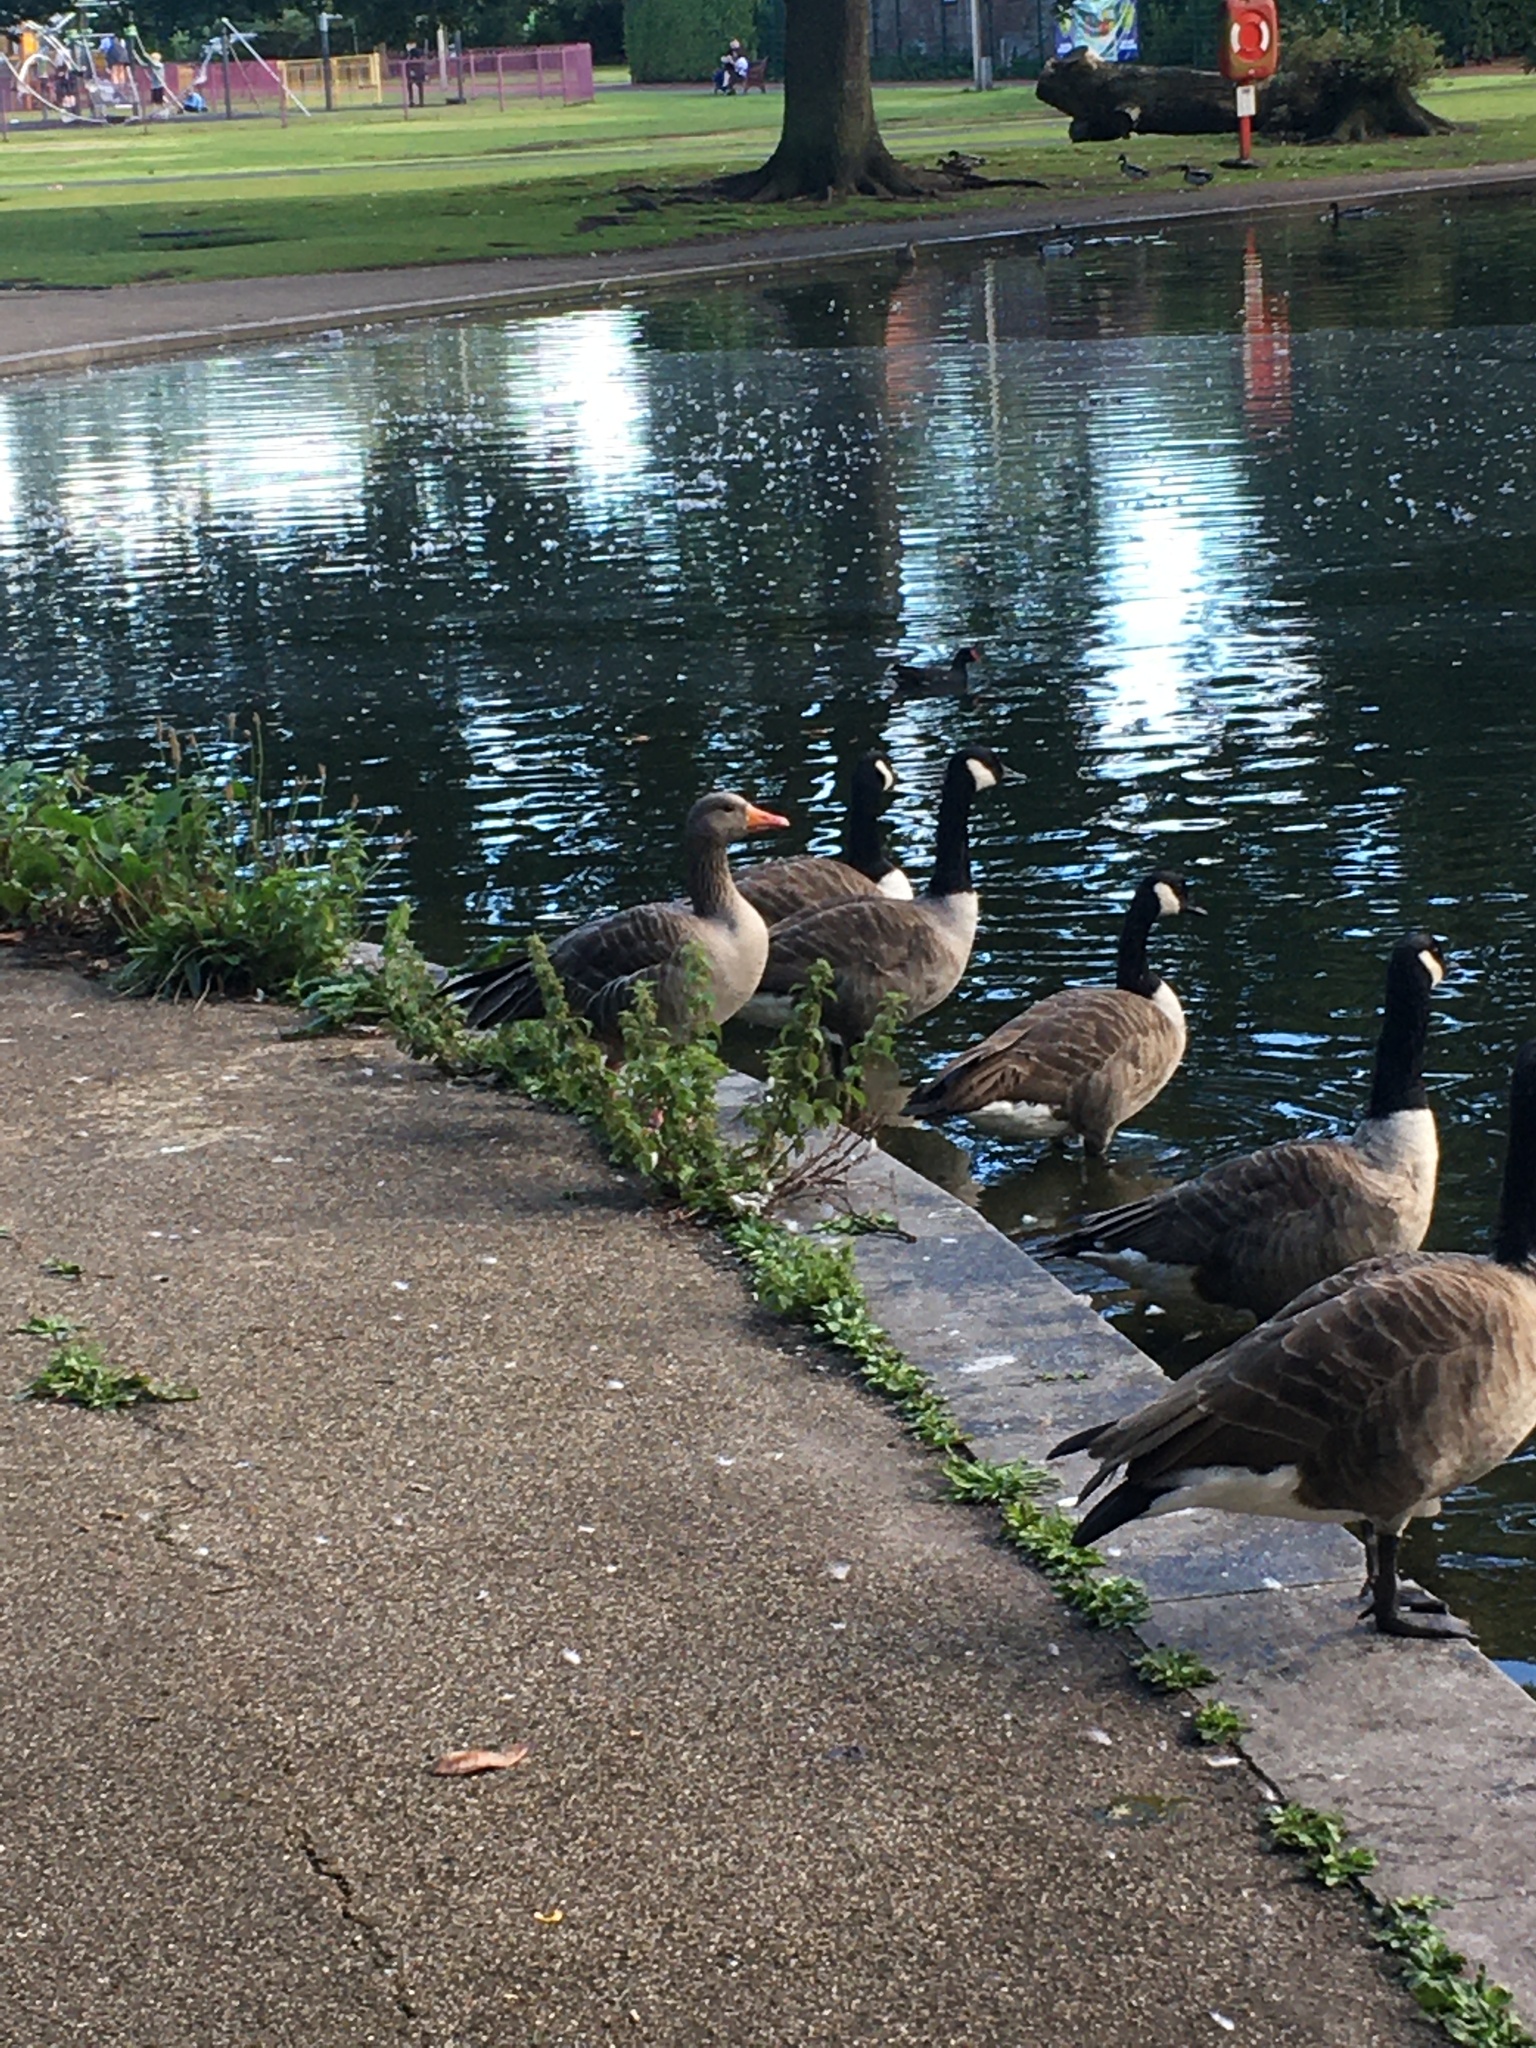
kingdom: Animalia
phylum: Chordata
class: Aves
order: Anseriformes
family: Anatidae
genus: Anser
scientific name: Anser anser
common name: Greylag goose
